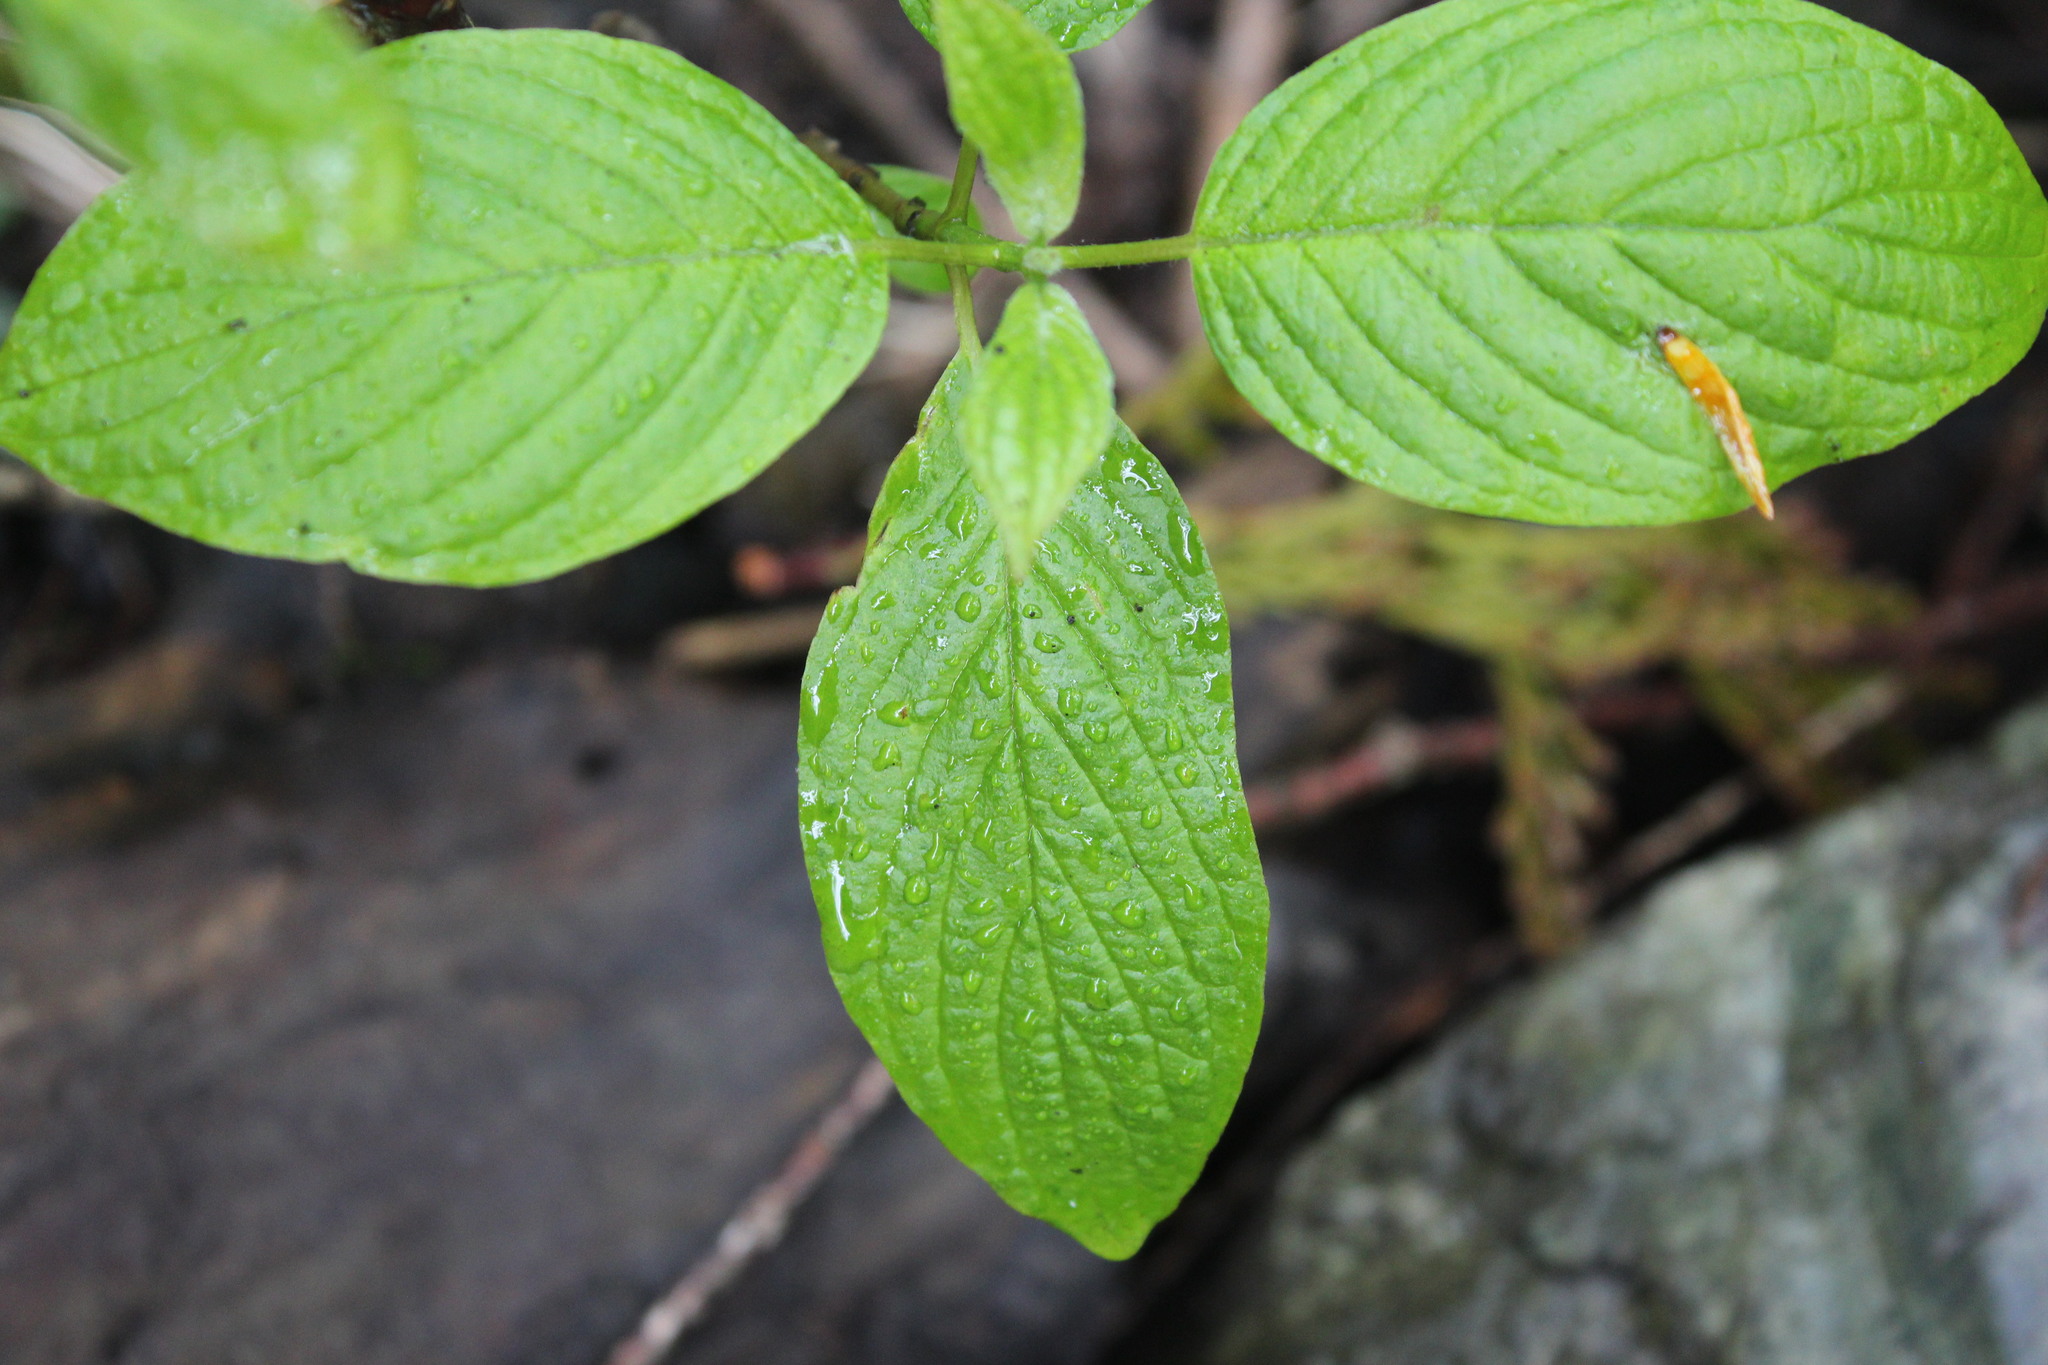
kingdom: Plantae
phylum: Tracheophyta
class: Magnoliopsida
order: Cornales
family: Cornaceae
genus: Cornus
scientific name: Cornus alba
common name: White dogwood
